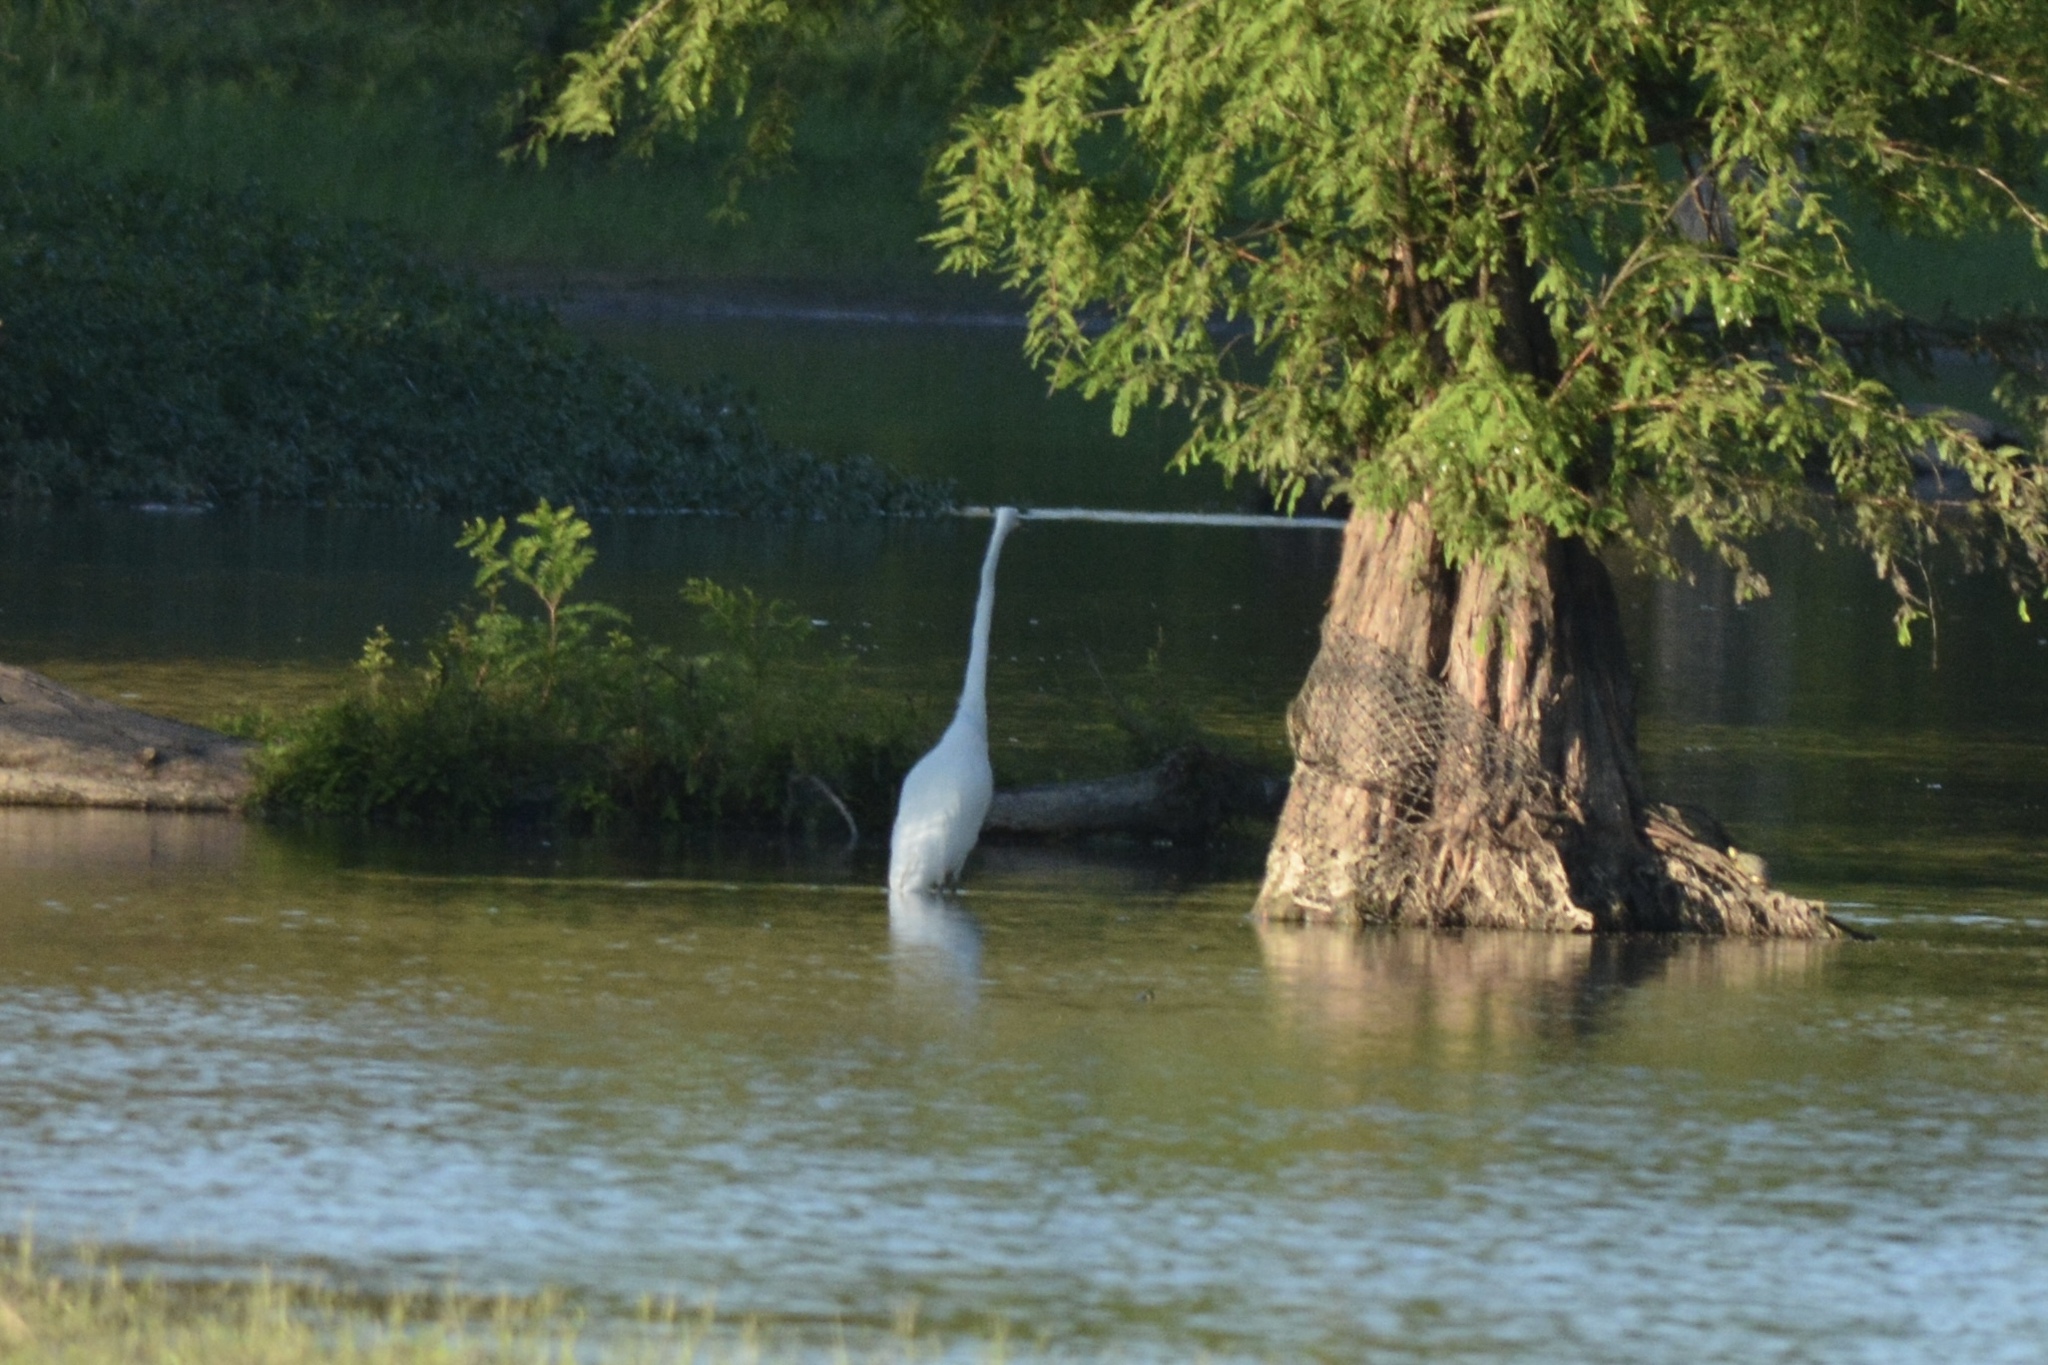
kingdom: Animalia
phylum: Chordata
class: Aves
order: Pelecaniformes
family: Ardeidae
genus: Ardea
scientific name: Ardea alba
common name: Great egret
